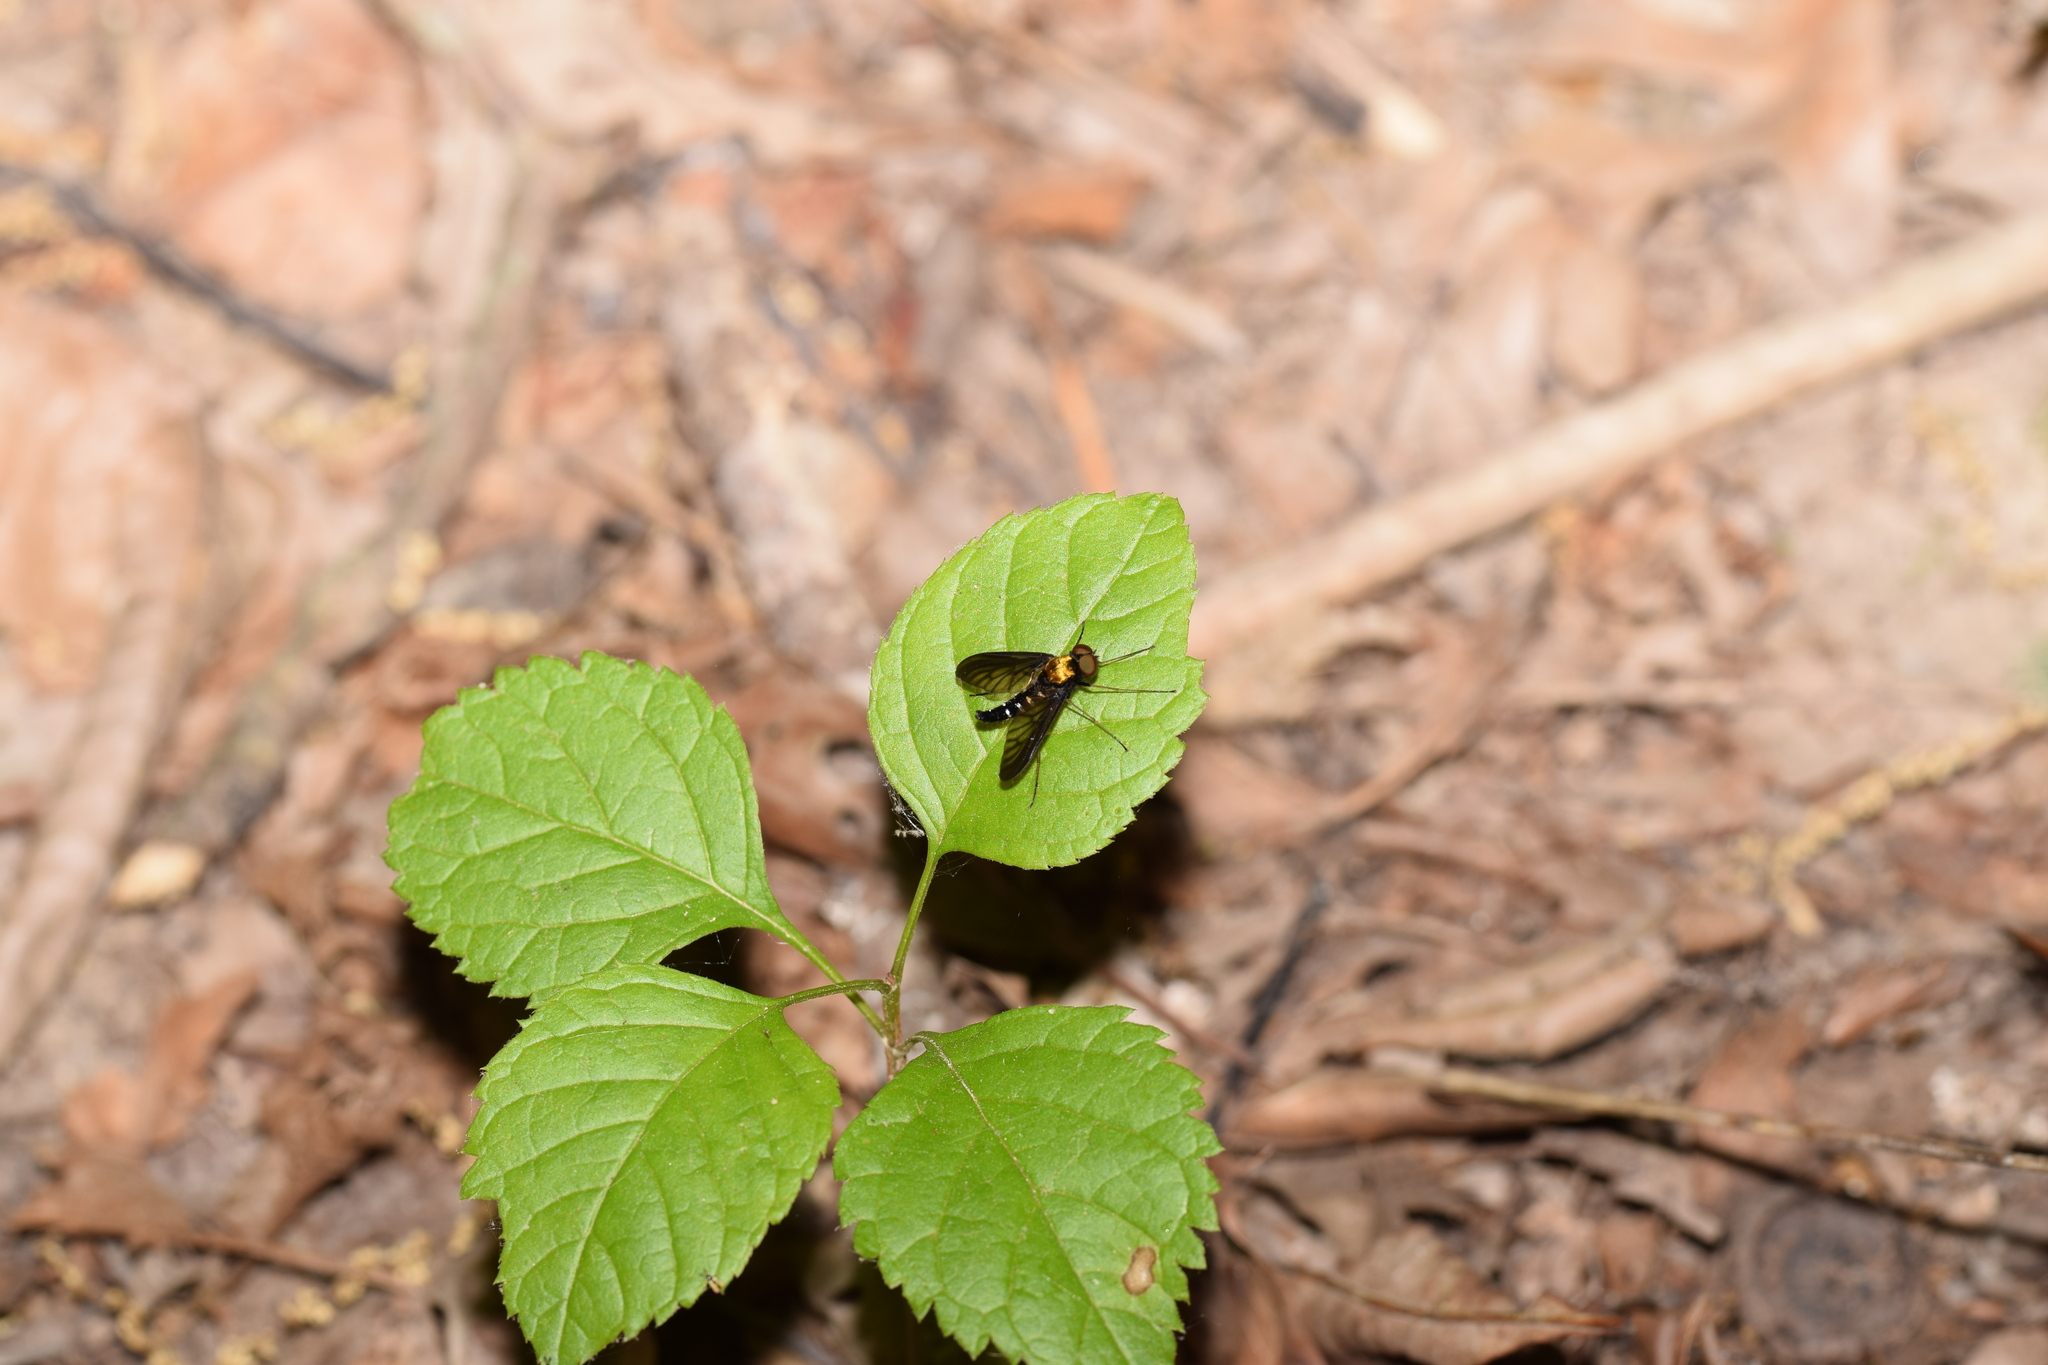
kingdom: Animalia
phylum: Arthropoda
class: Insecta
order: Diptera
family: Rhagionidae
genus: Chrysopilus
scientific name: Chrysopilus thoracicus
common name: Golden-backed snipe fly
